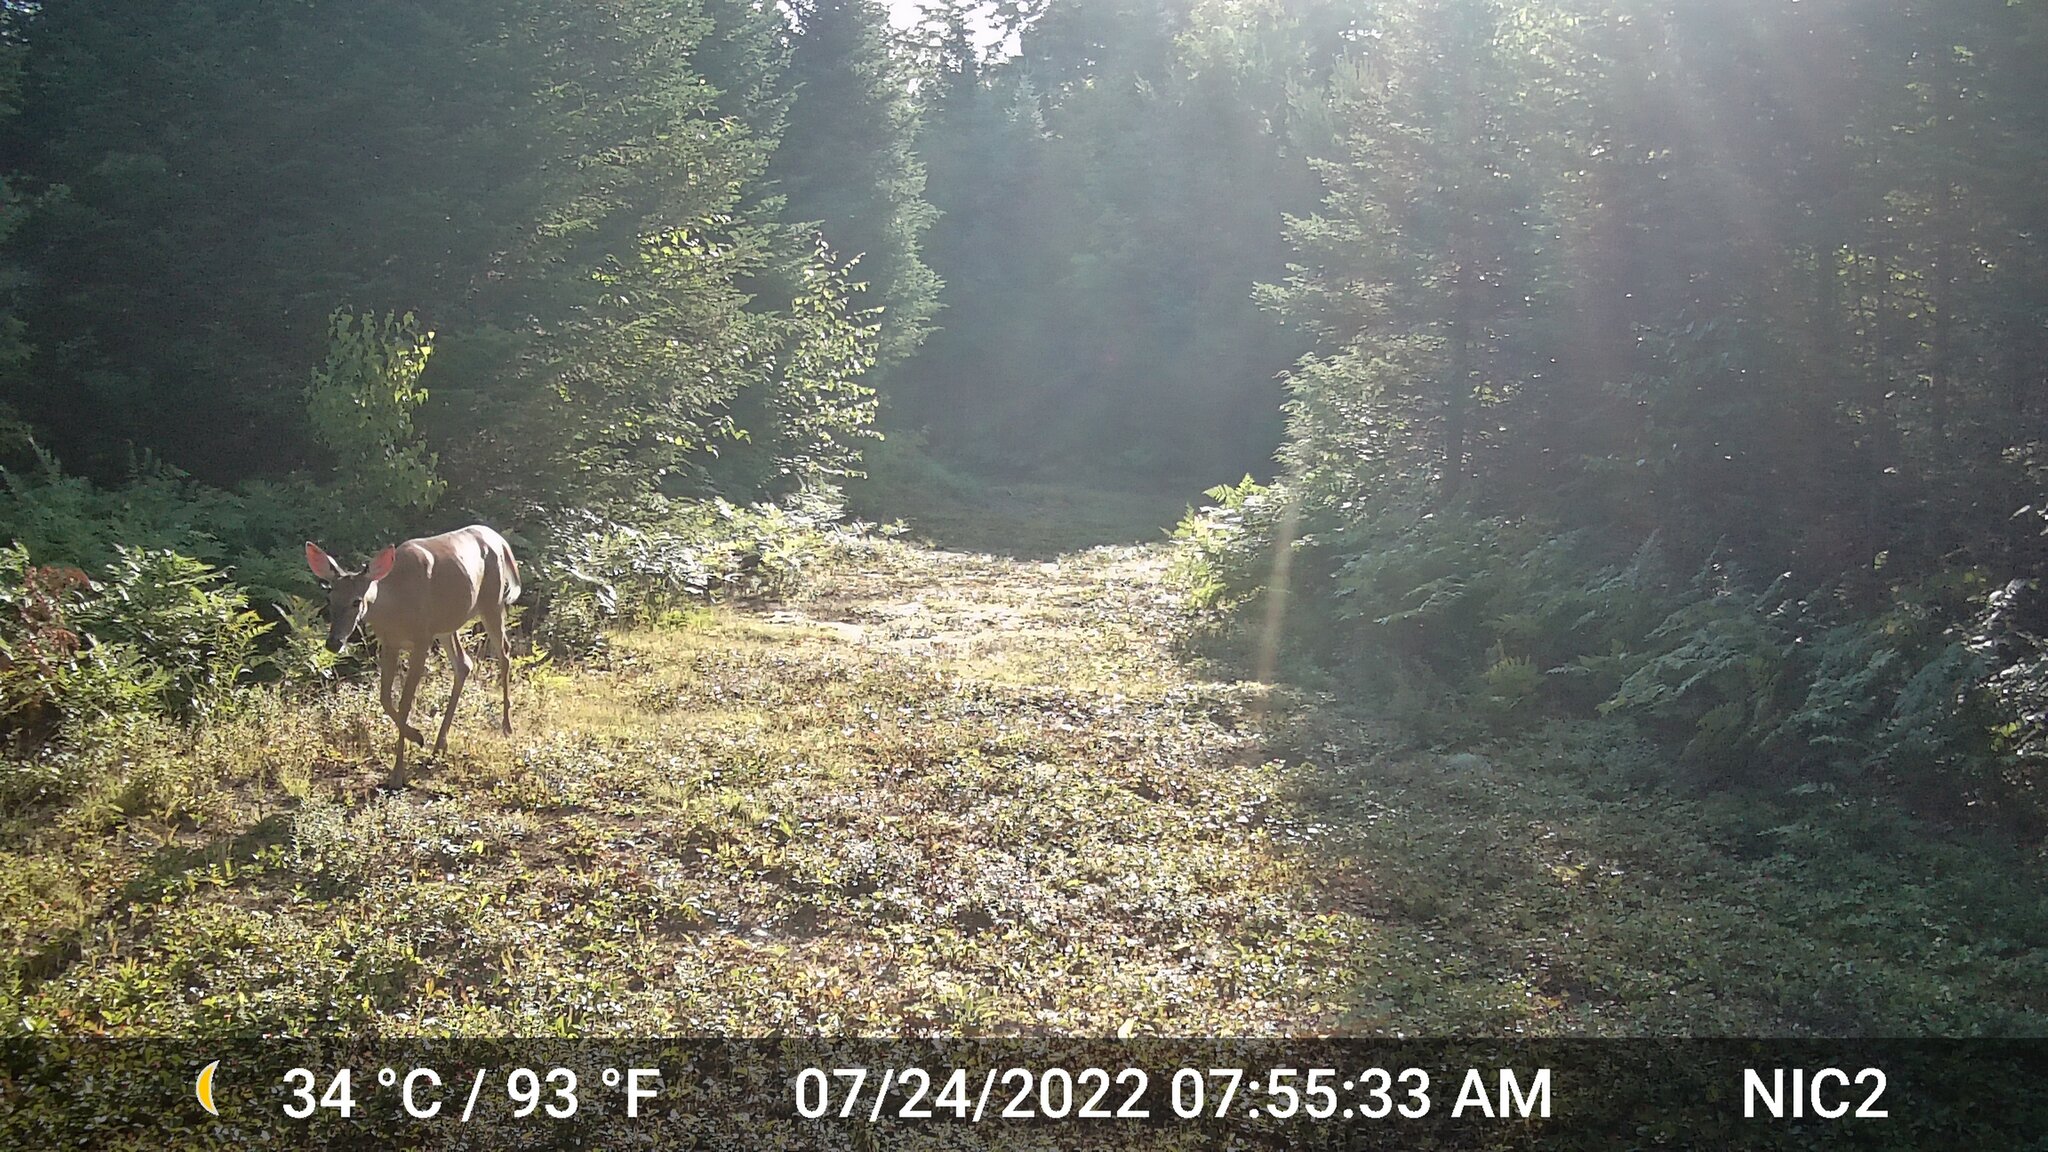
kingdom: Animalia
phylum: Chordata
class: Mammalia
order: Artiodactyla
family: Cervidae
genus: Odocoileus
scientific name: Odocoileus virginianus
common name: White-tailed deer
